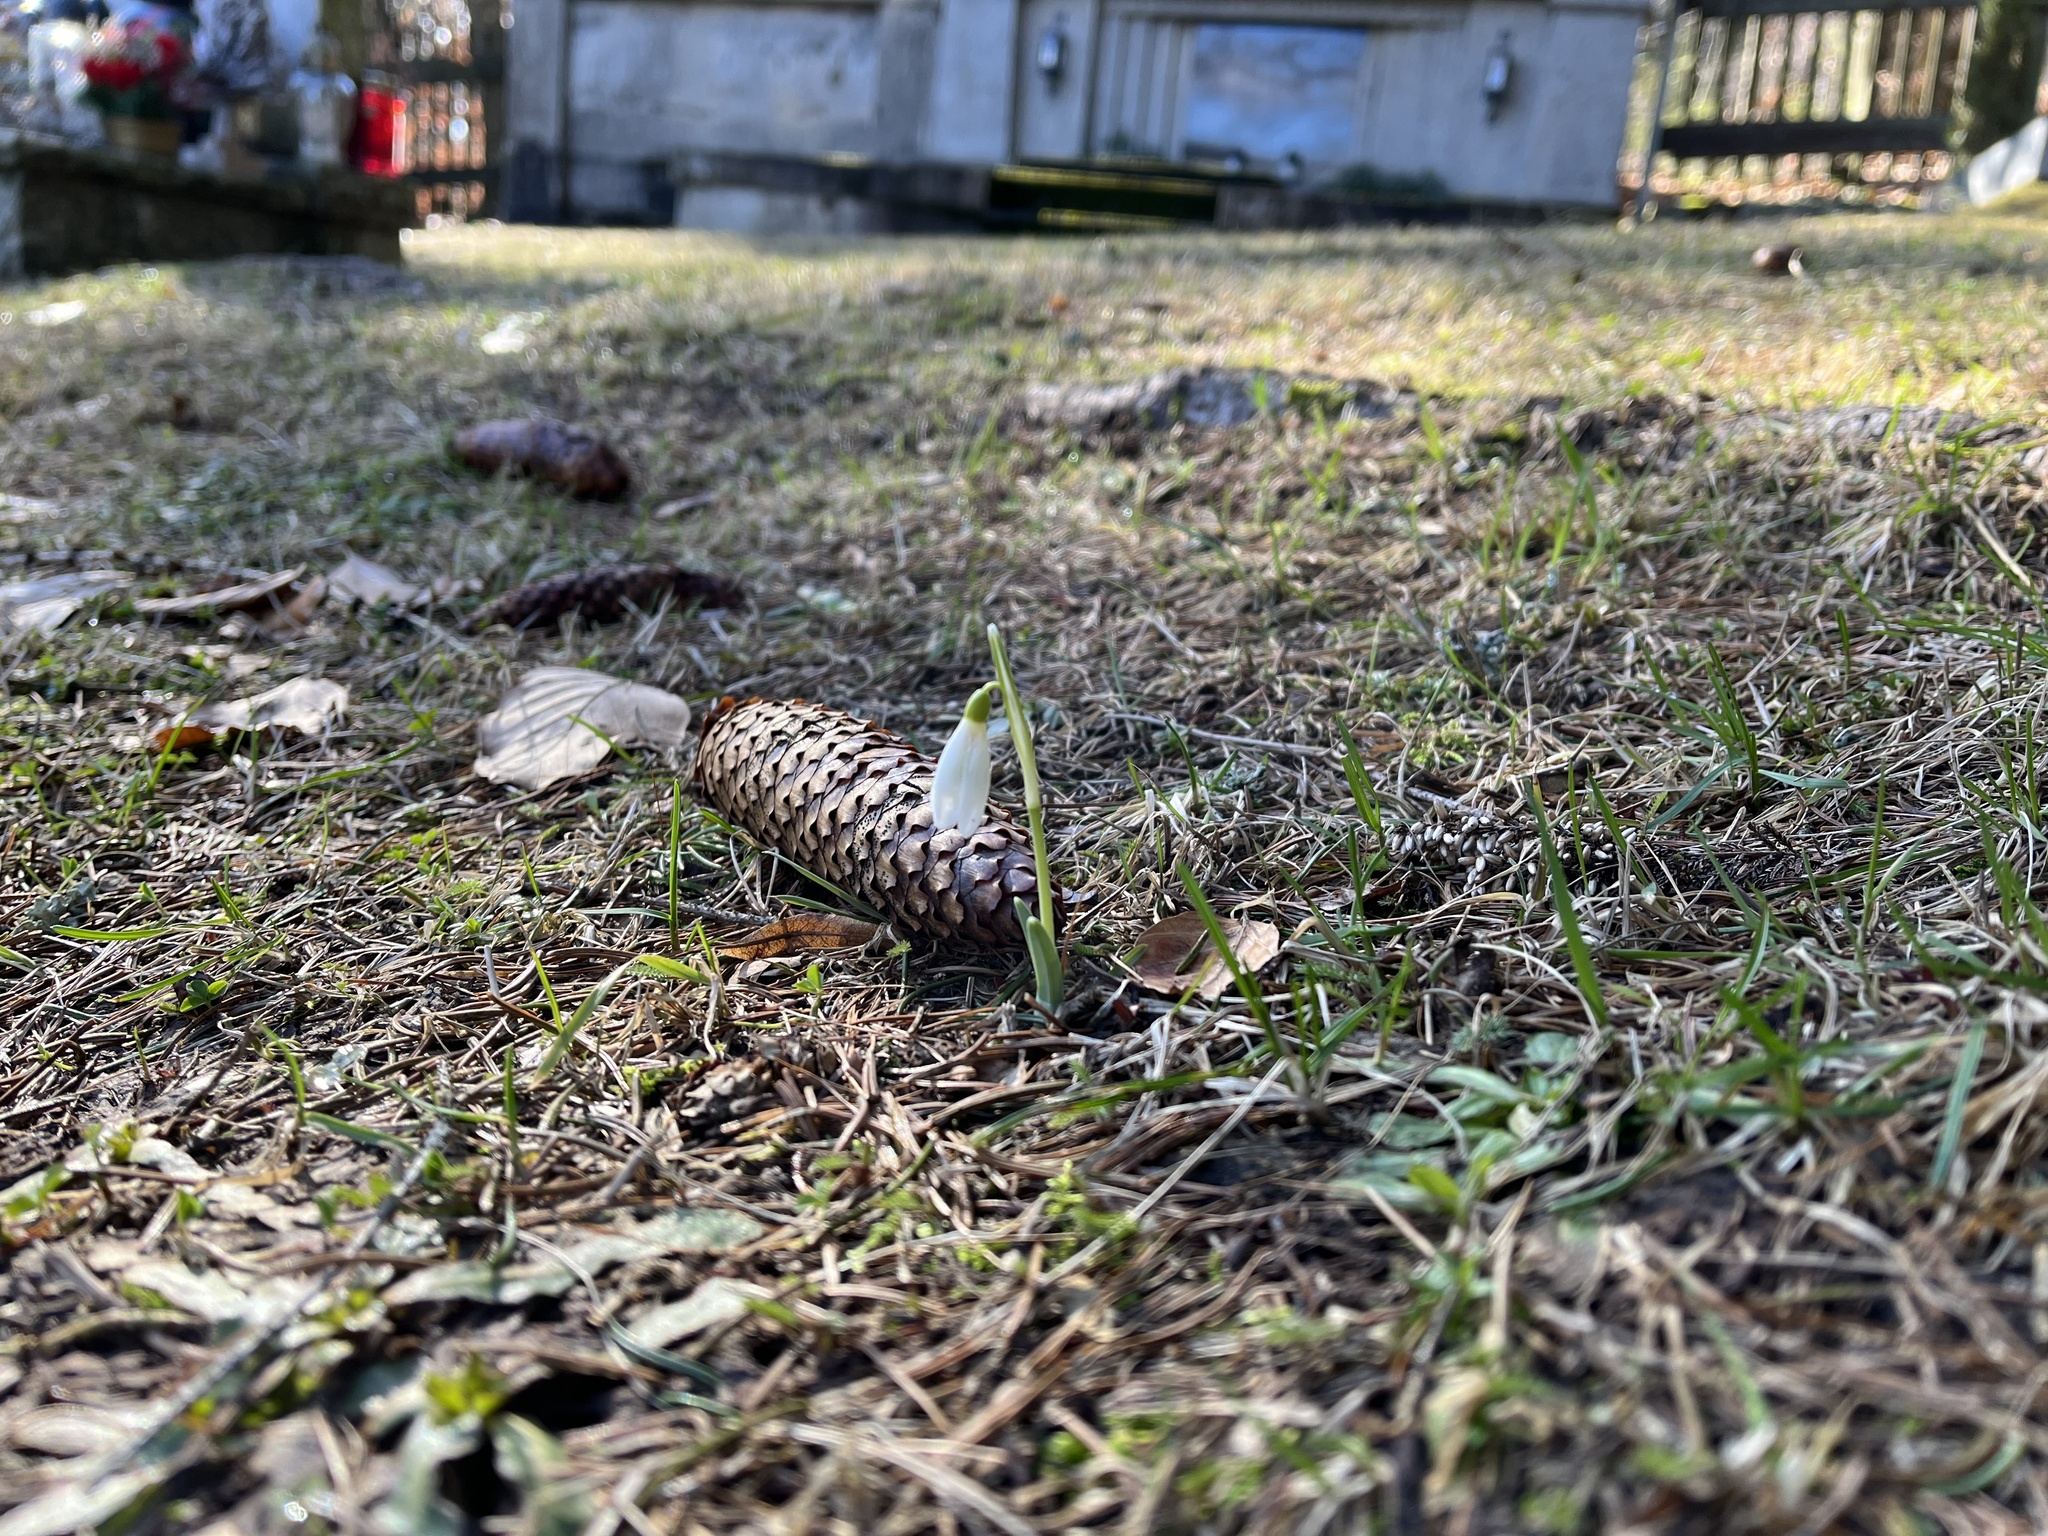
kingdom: Plantae
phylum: Tracheophyta
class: Liliopsida
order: Asparagales
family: Amaryllidaceae
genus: Galanthus
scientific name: Galanthus nivalis
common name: Snowdrop
